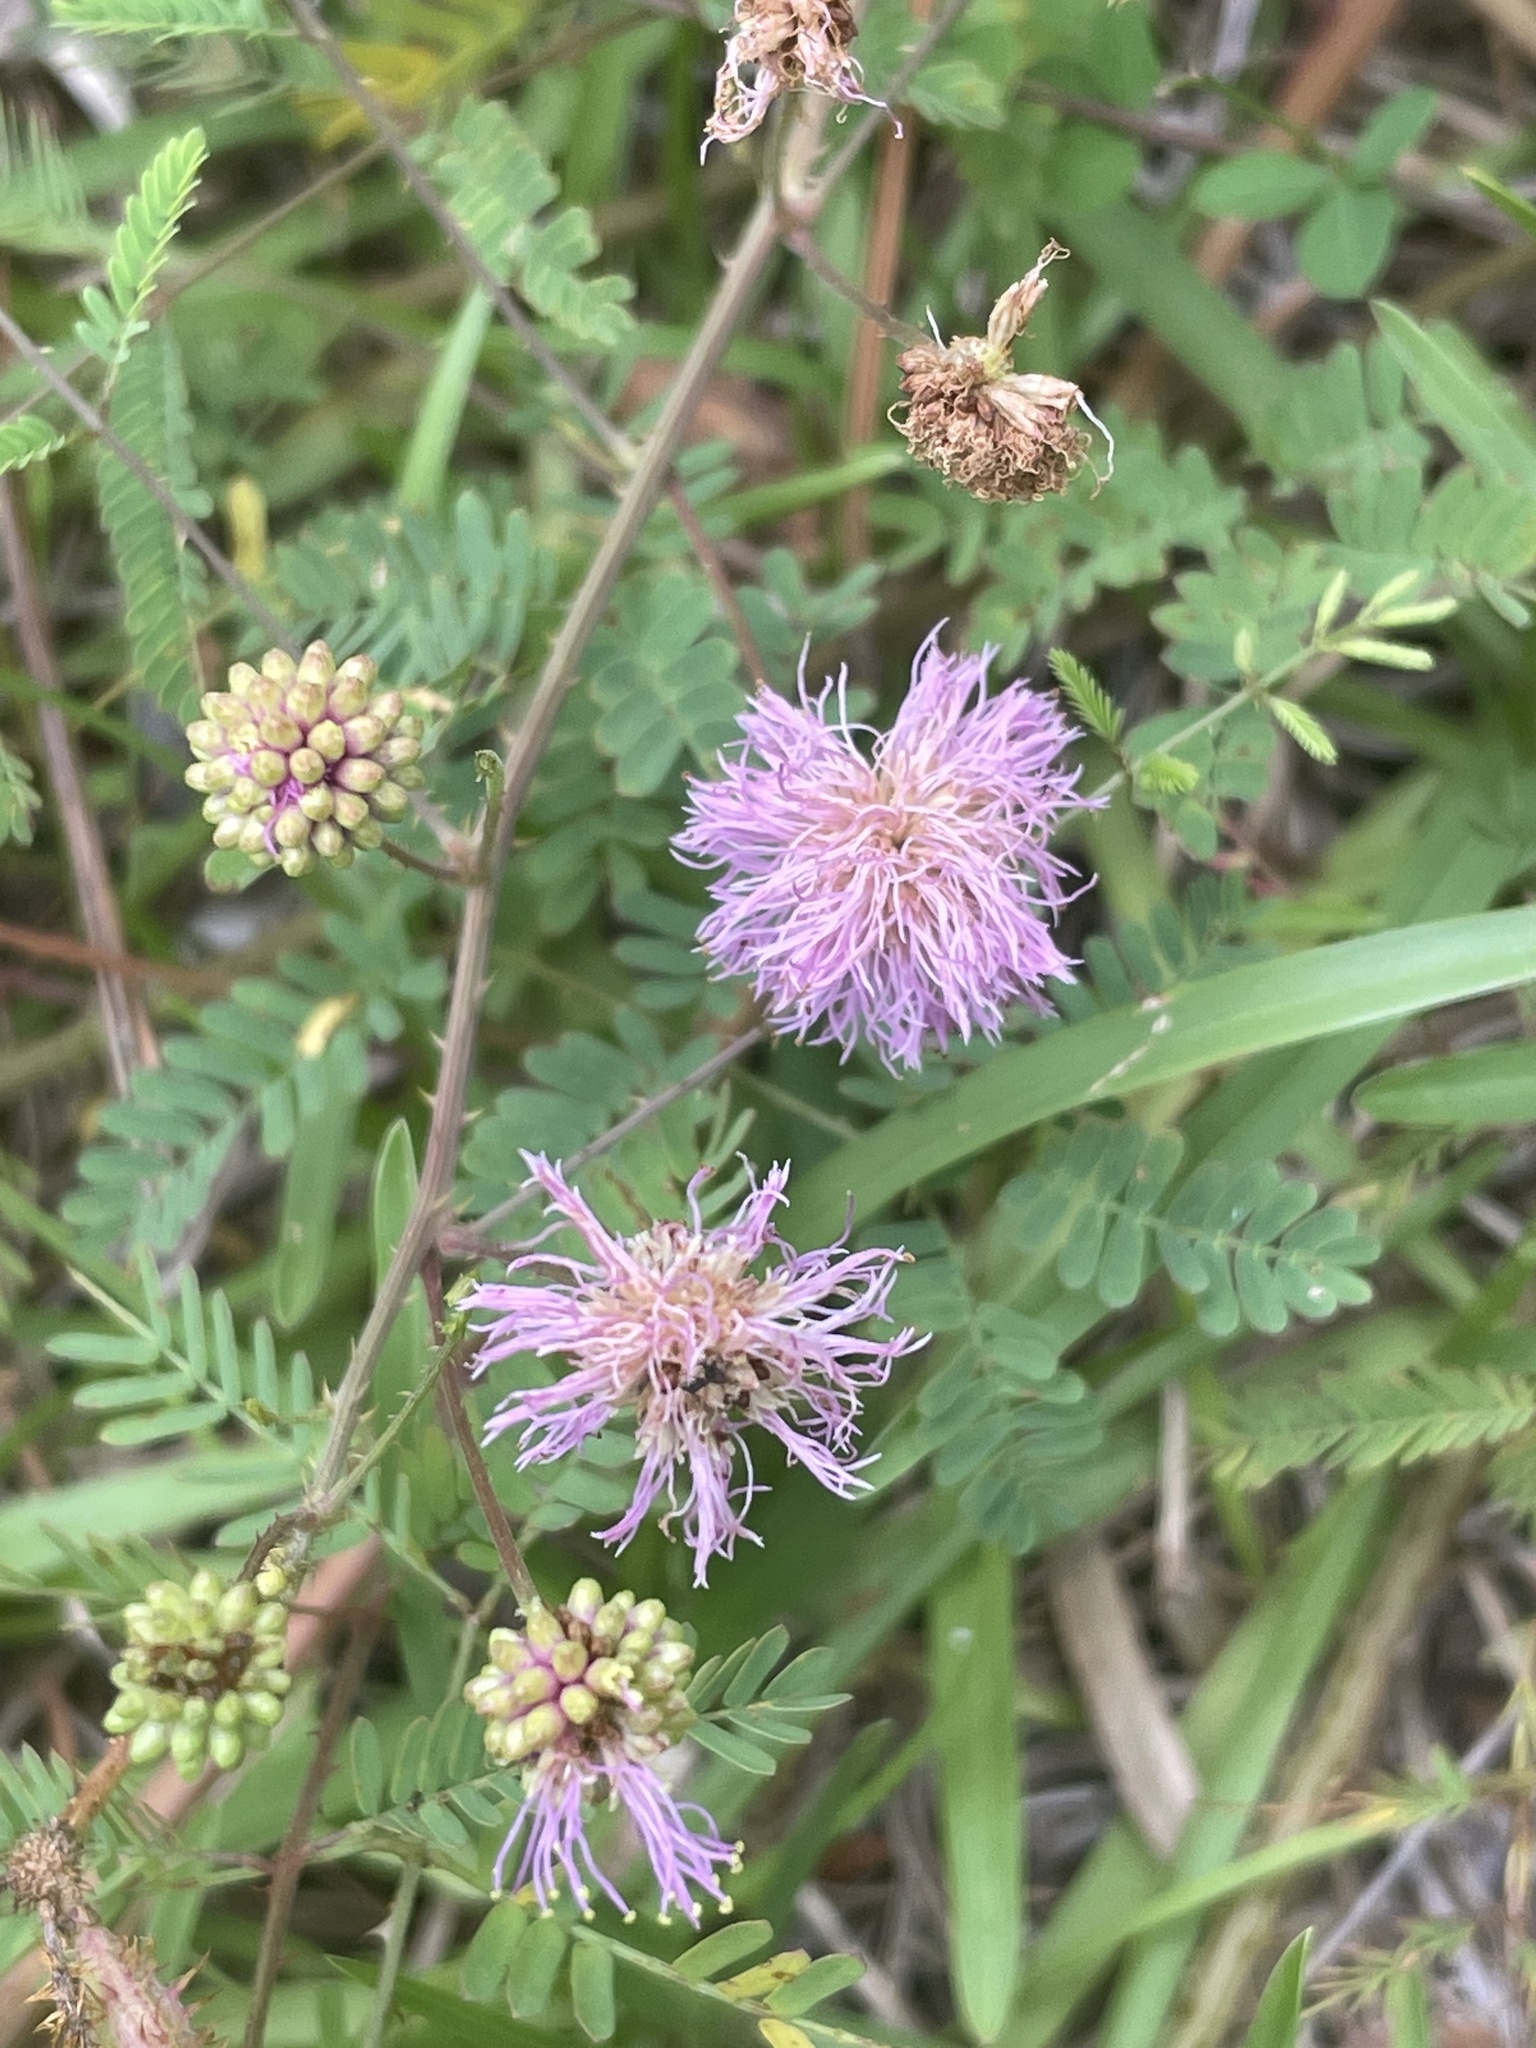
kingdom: Plantae
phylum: Tracheophyta
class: Magnoliopsida
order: Fabales
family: Fabaceae
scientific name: Fabaceae
